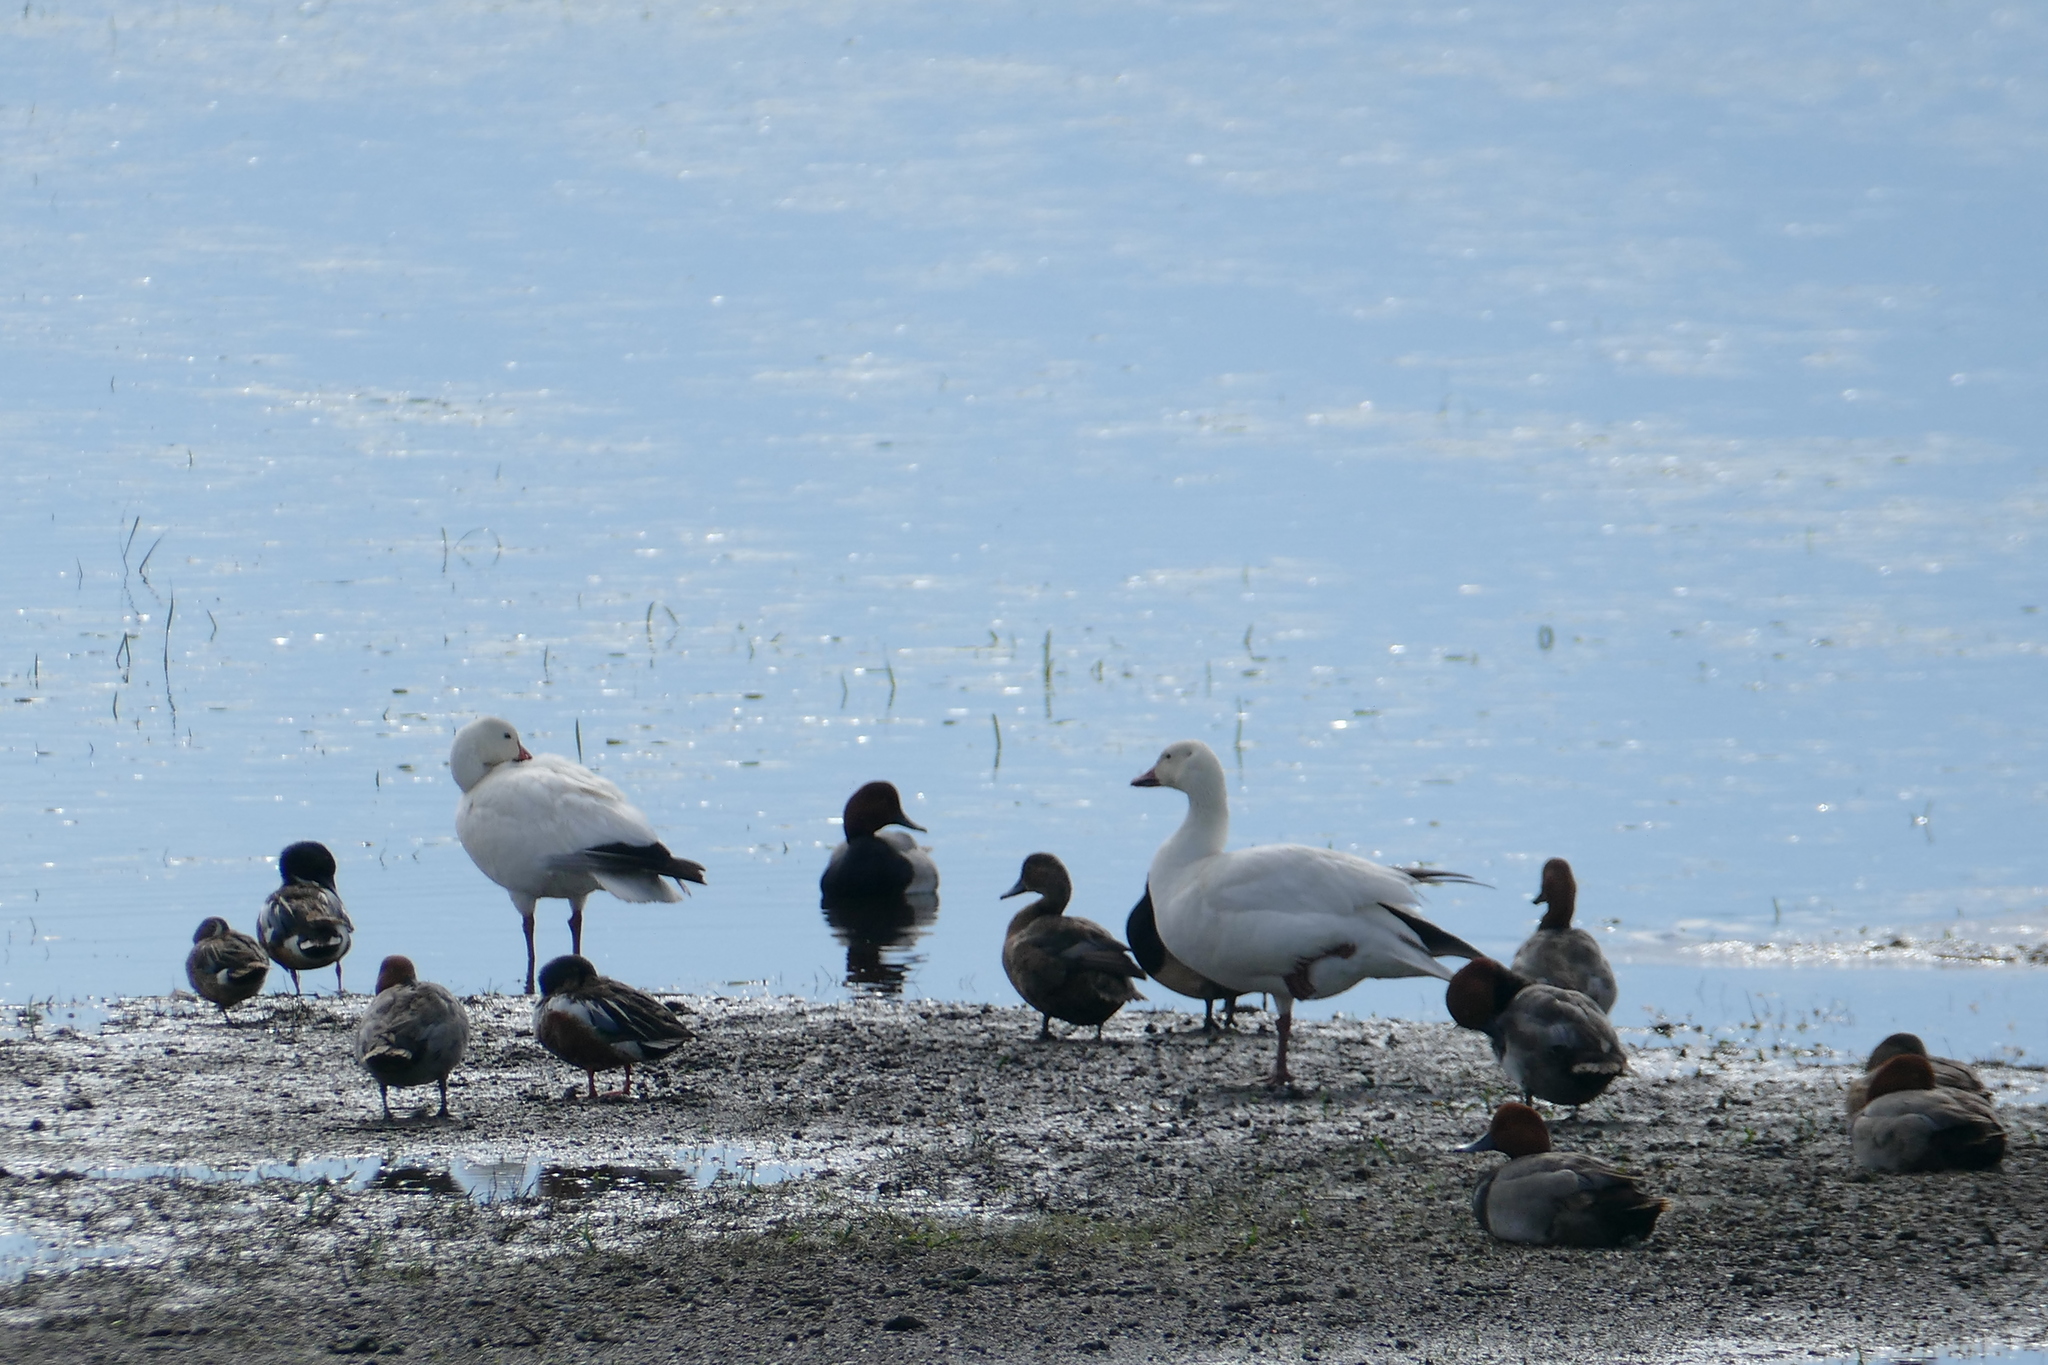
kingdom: Animalia
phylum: Chordata
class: Aves
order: Anseriformes
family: Anatidae
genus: Spatula
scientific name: Spatula clypeata
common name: Northern shoveler
